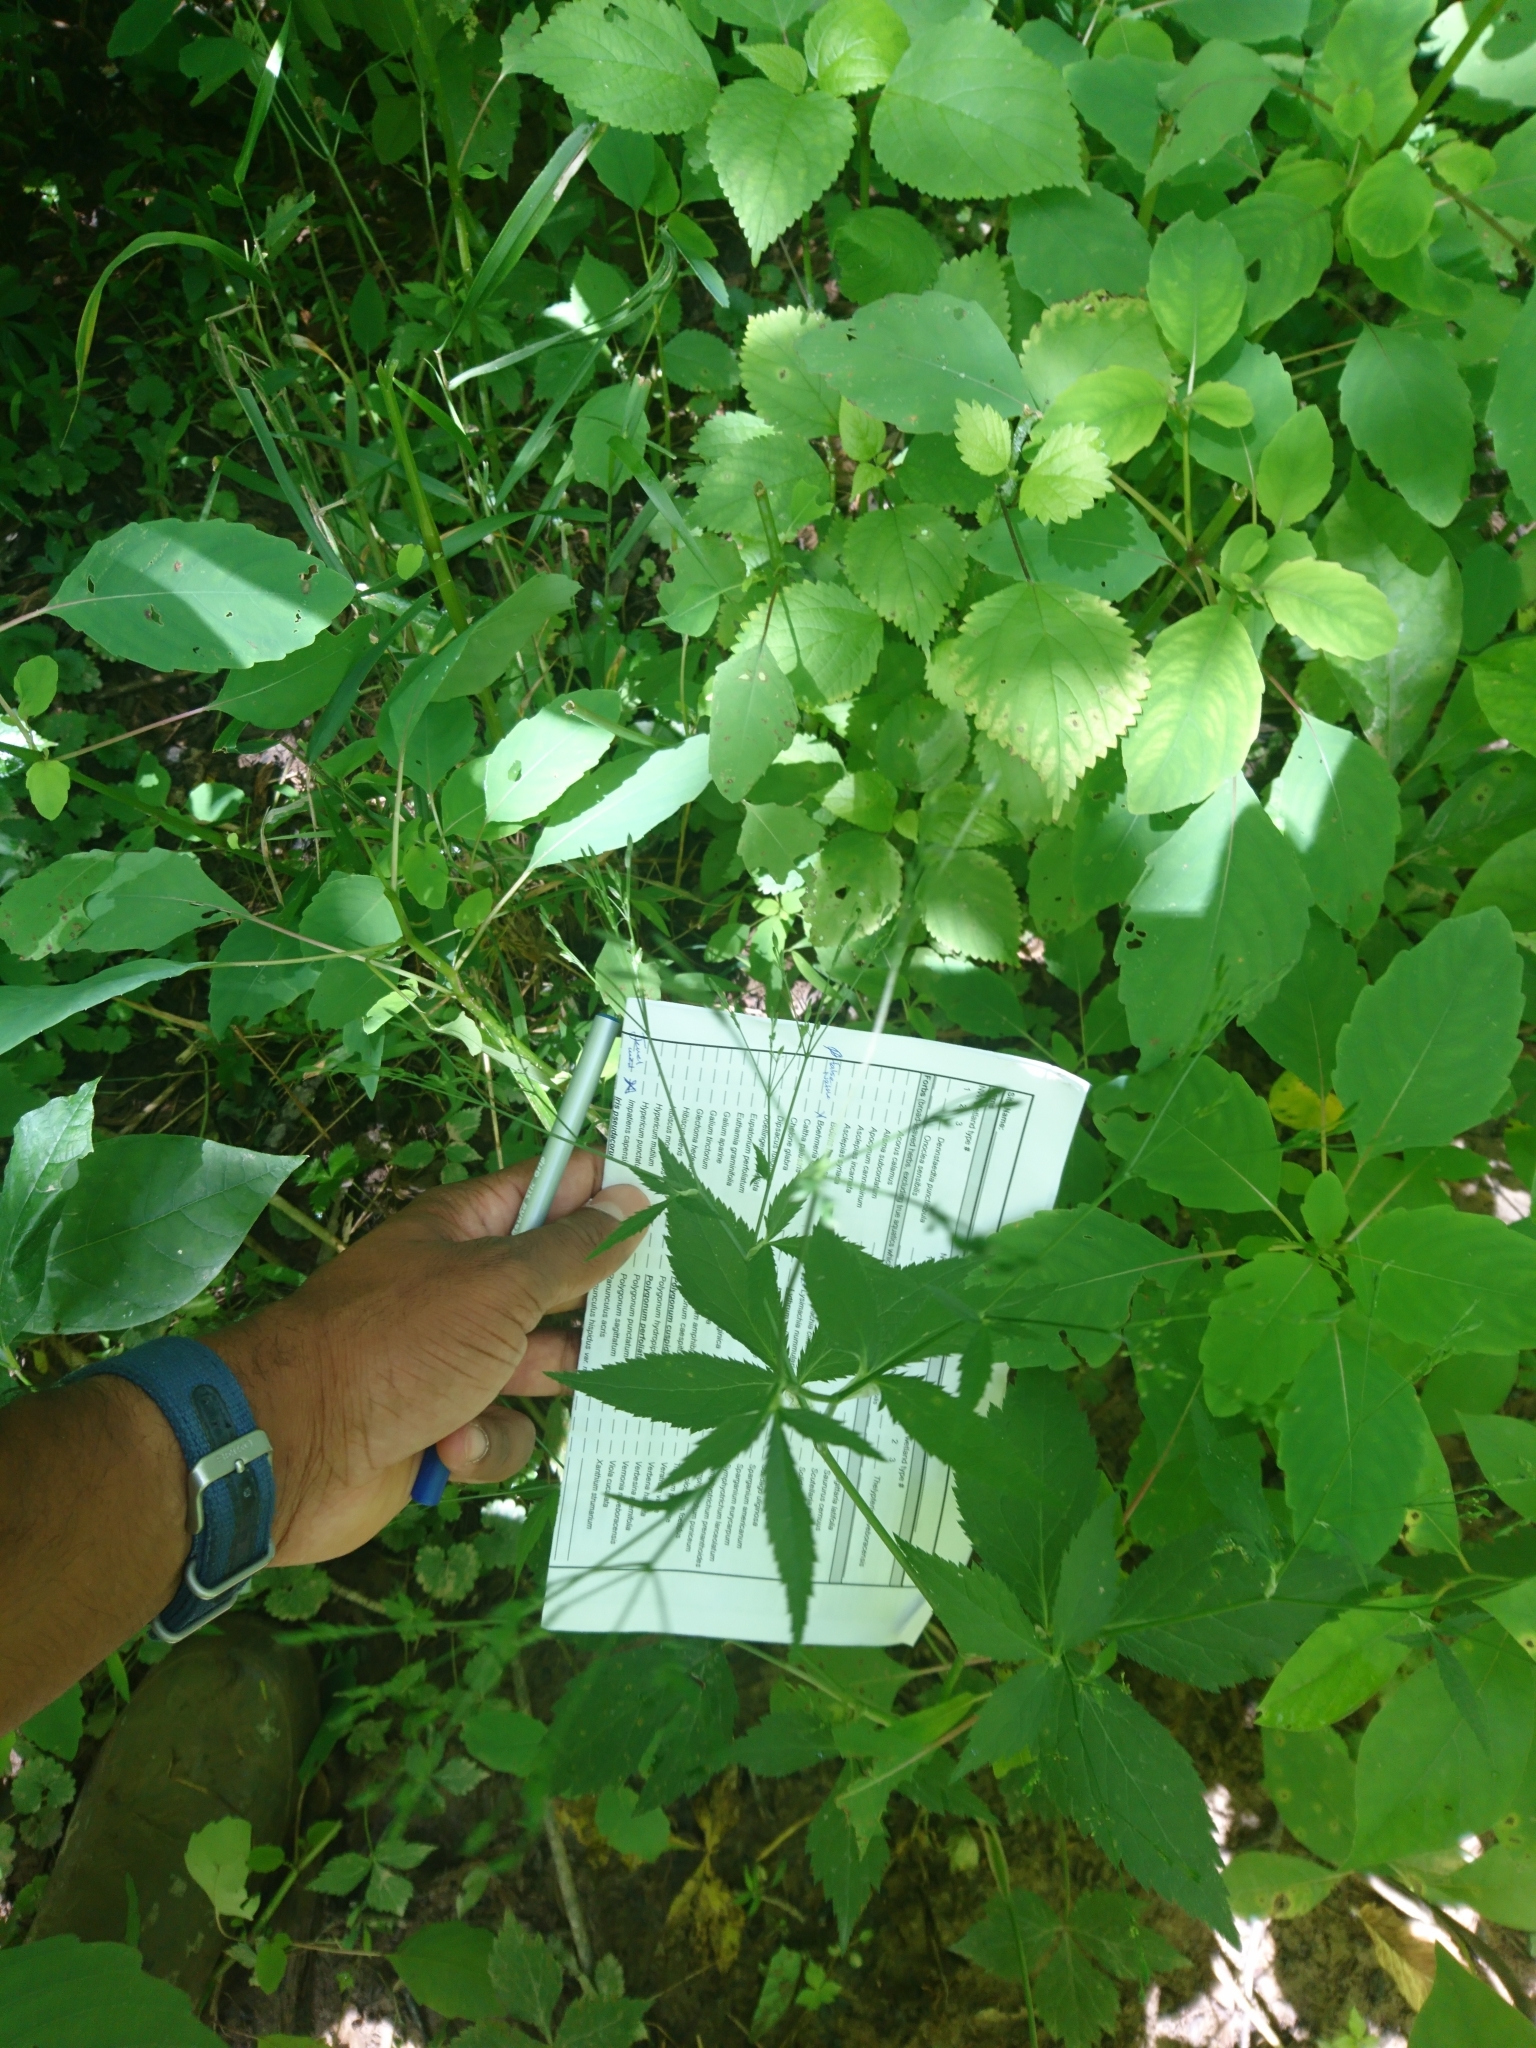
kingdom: Plantae
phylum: Tracheophyta
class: Magnoliopsida
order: Apiales
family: Apiaceae
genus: Cryptotaenia
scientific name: Cryptotaenia canadensis
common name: Honewort
